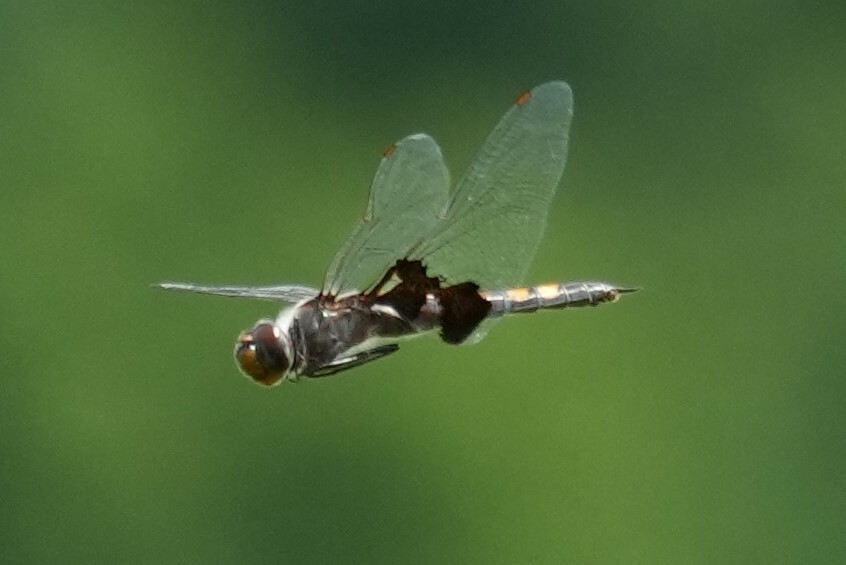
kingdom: Animalia
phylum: Arthropoda
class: Insecta
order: Odonata
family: Libellulidae
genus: Tramea
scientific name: Tramea lacerata
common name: Black saddlebags
